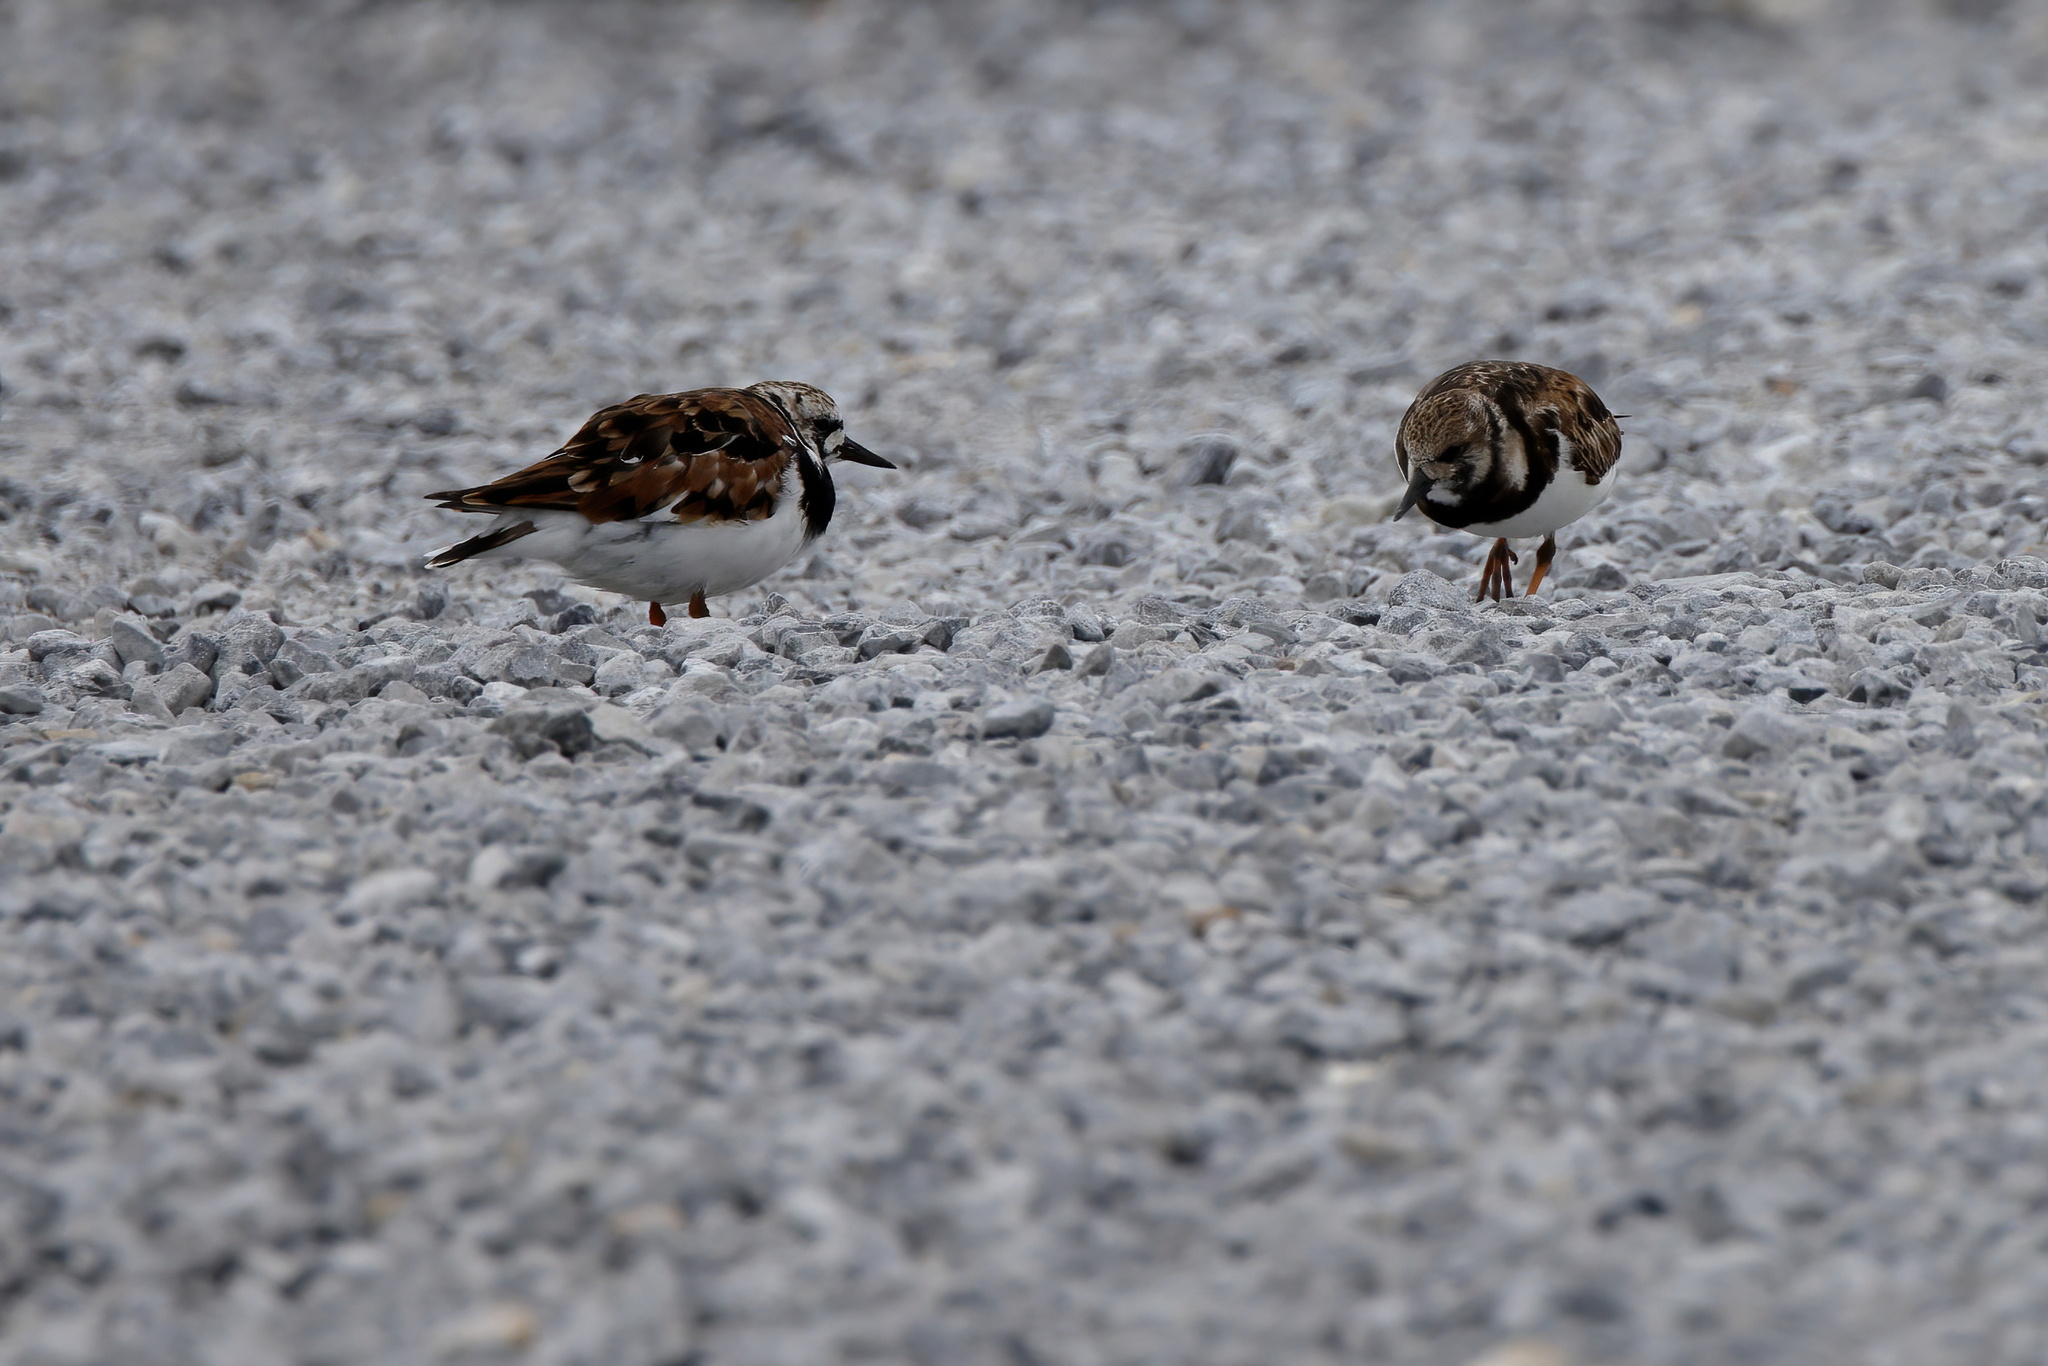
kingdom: Animalia
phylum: Chordata
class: Aves
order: Charadriiformes
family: Scolopacidae
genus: Arenaria
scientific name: Arenaria interpres
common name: Ruddy turnstone
